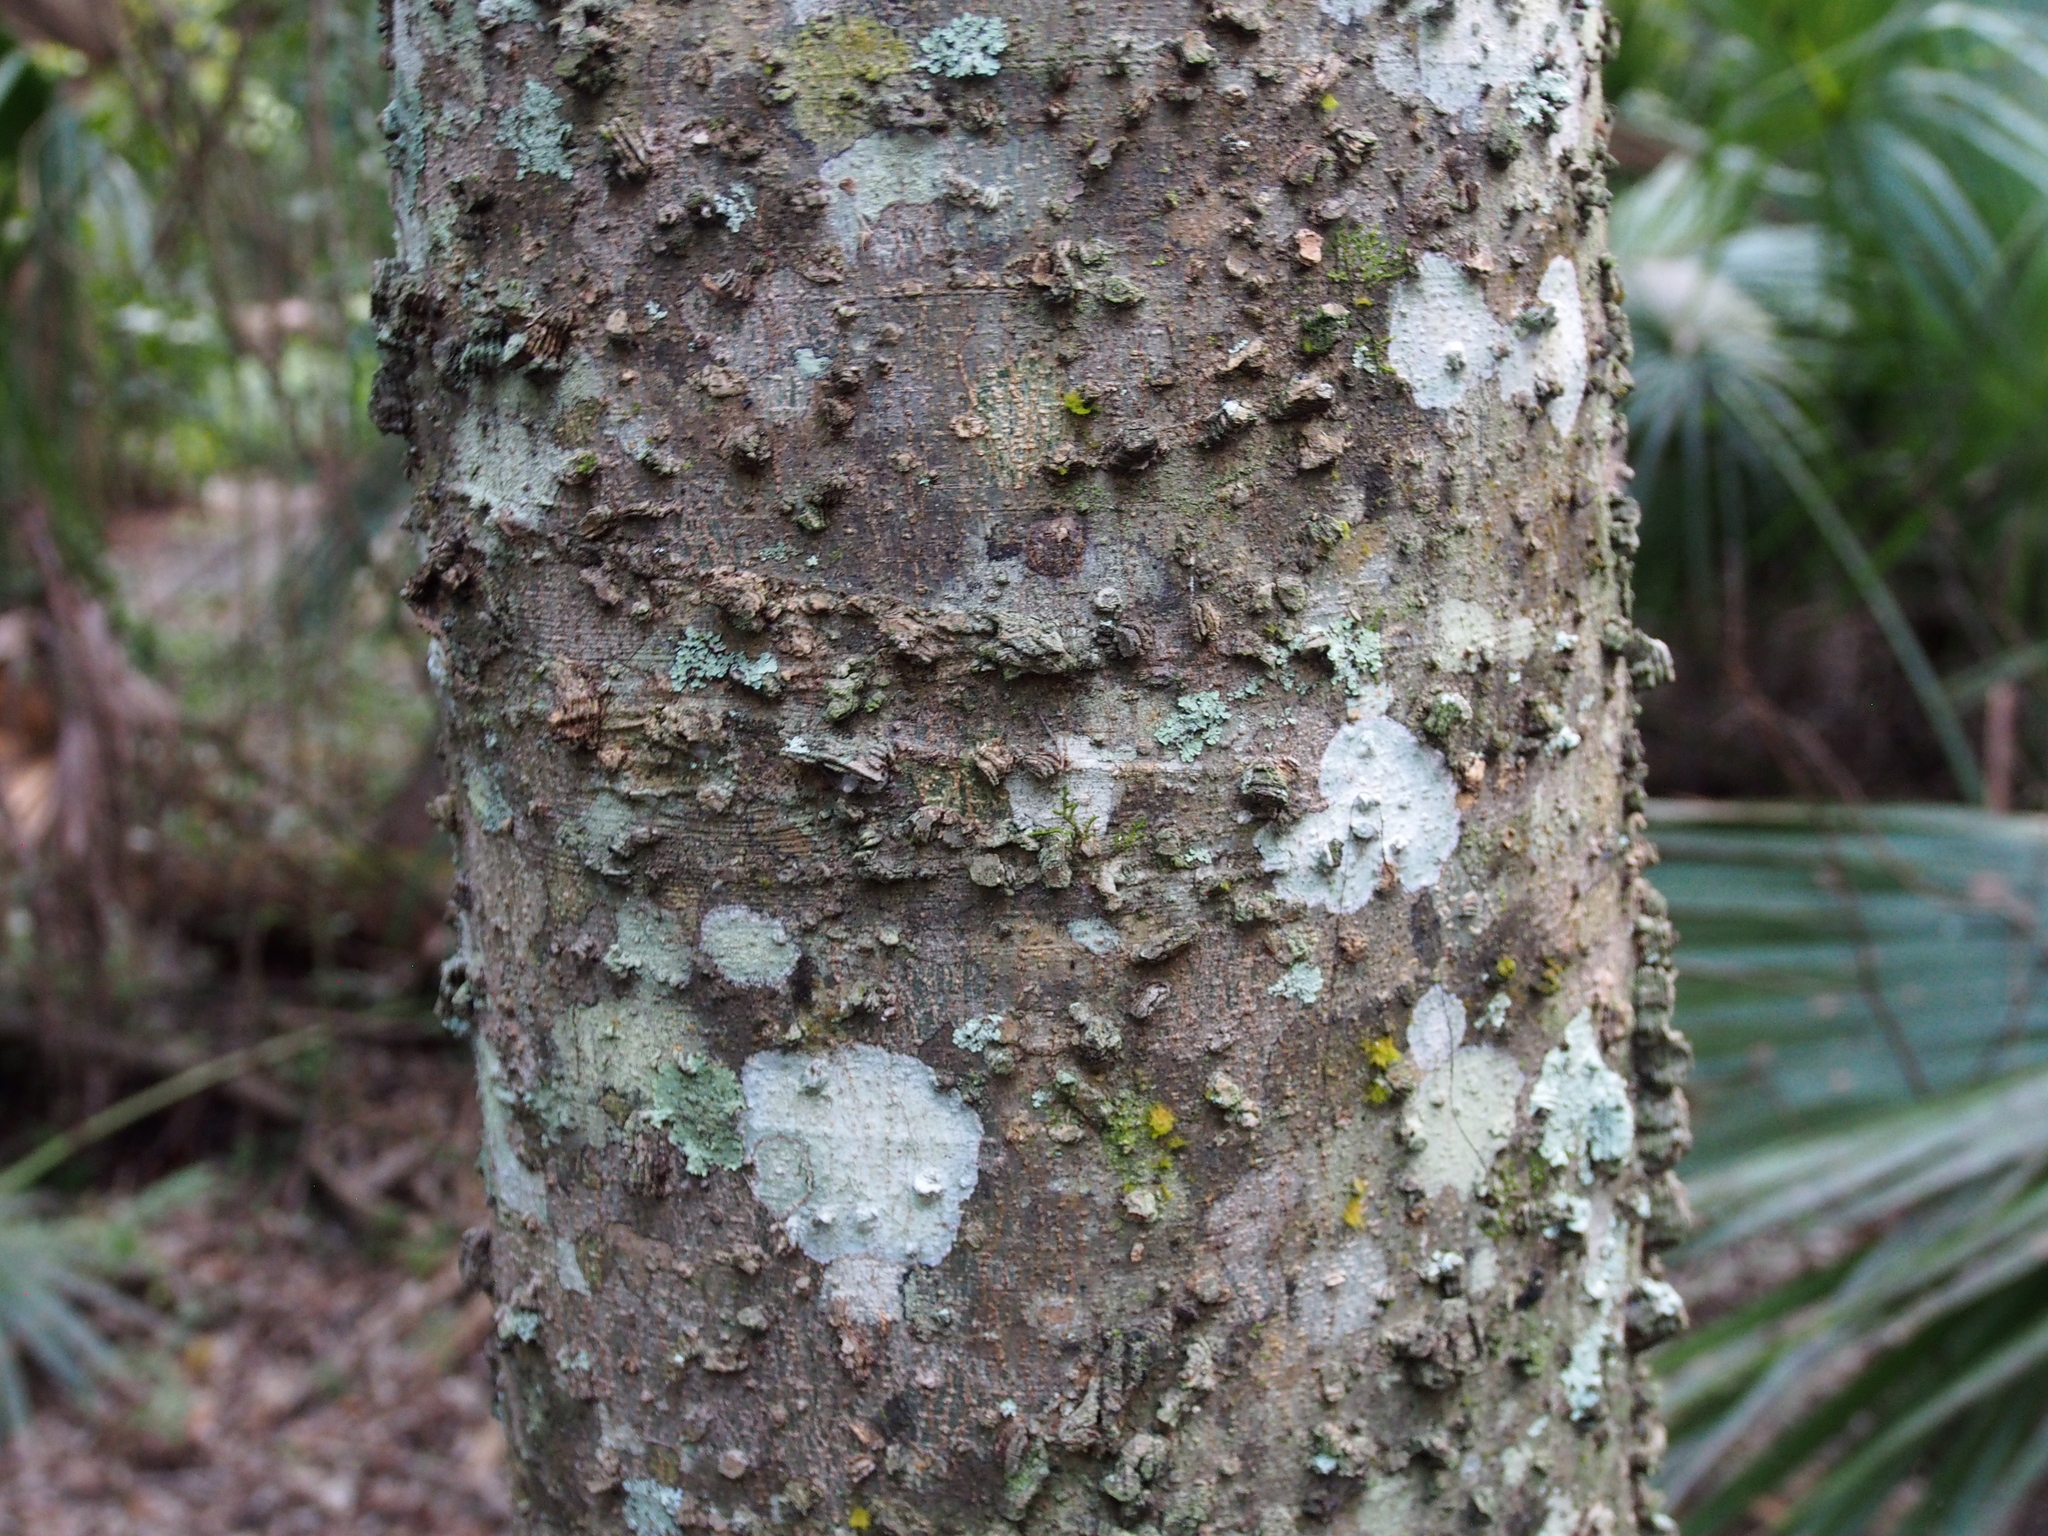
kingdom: Plantae
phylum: Tracheophyta
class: Magnoliopsida
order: Rosales
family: Cannabaceae
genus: Celtis
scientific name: Celtis laevigata
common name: Sugarberry
